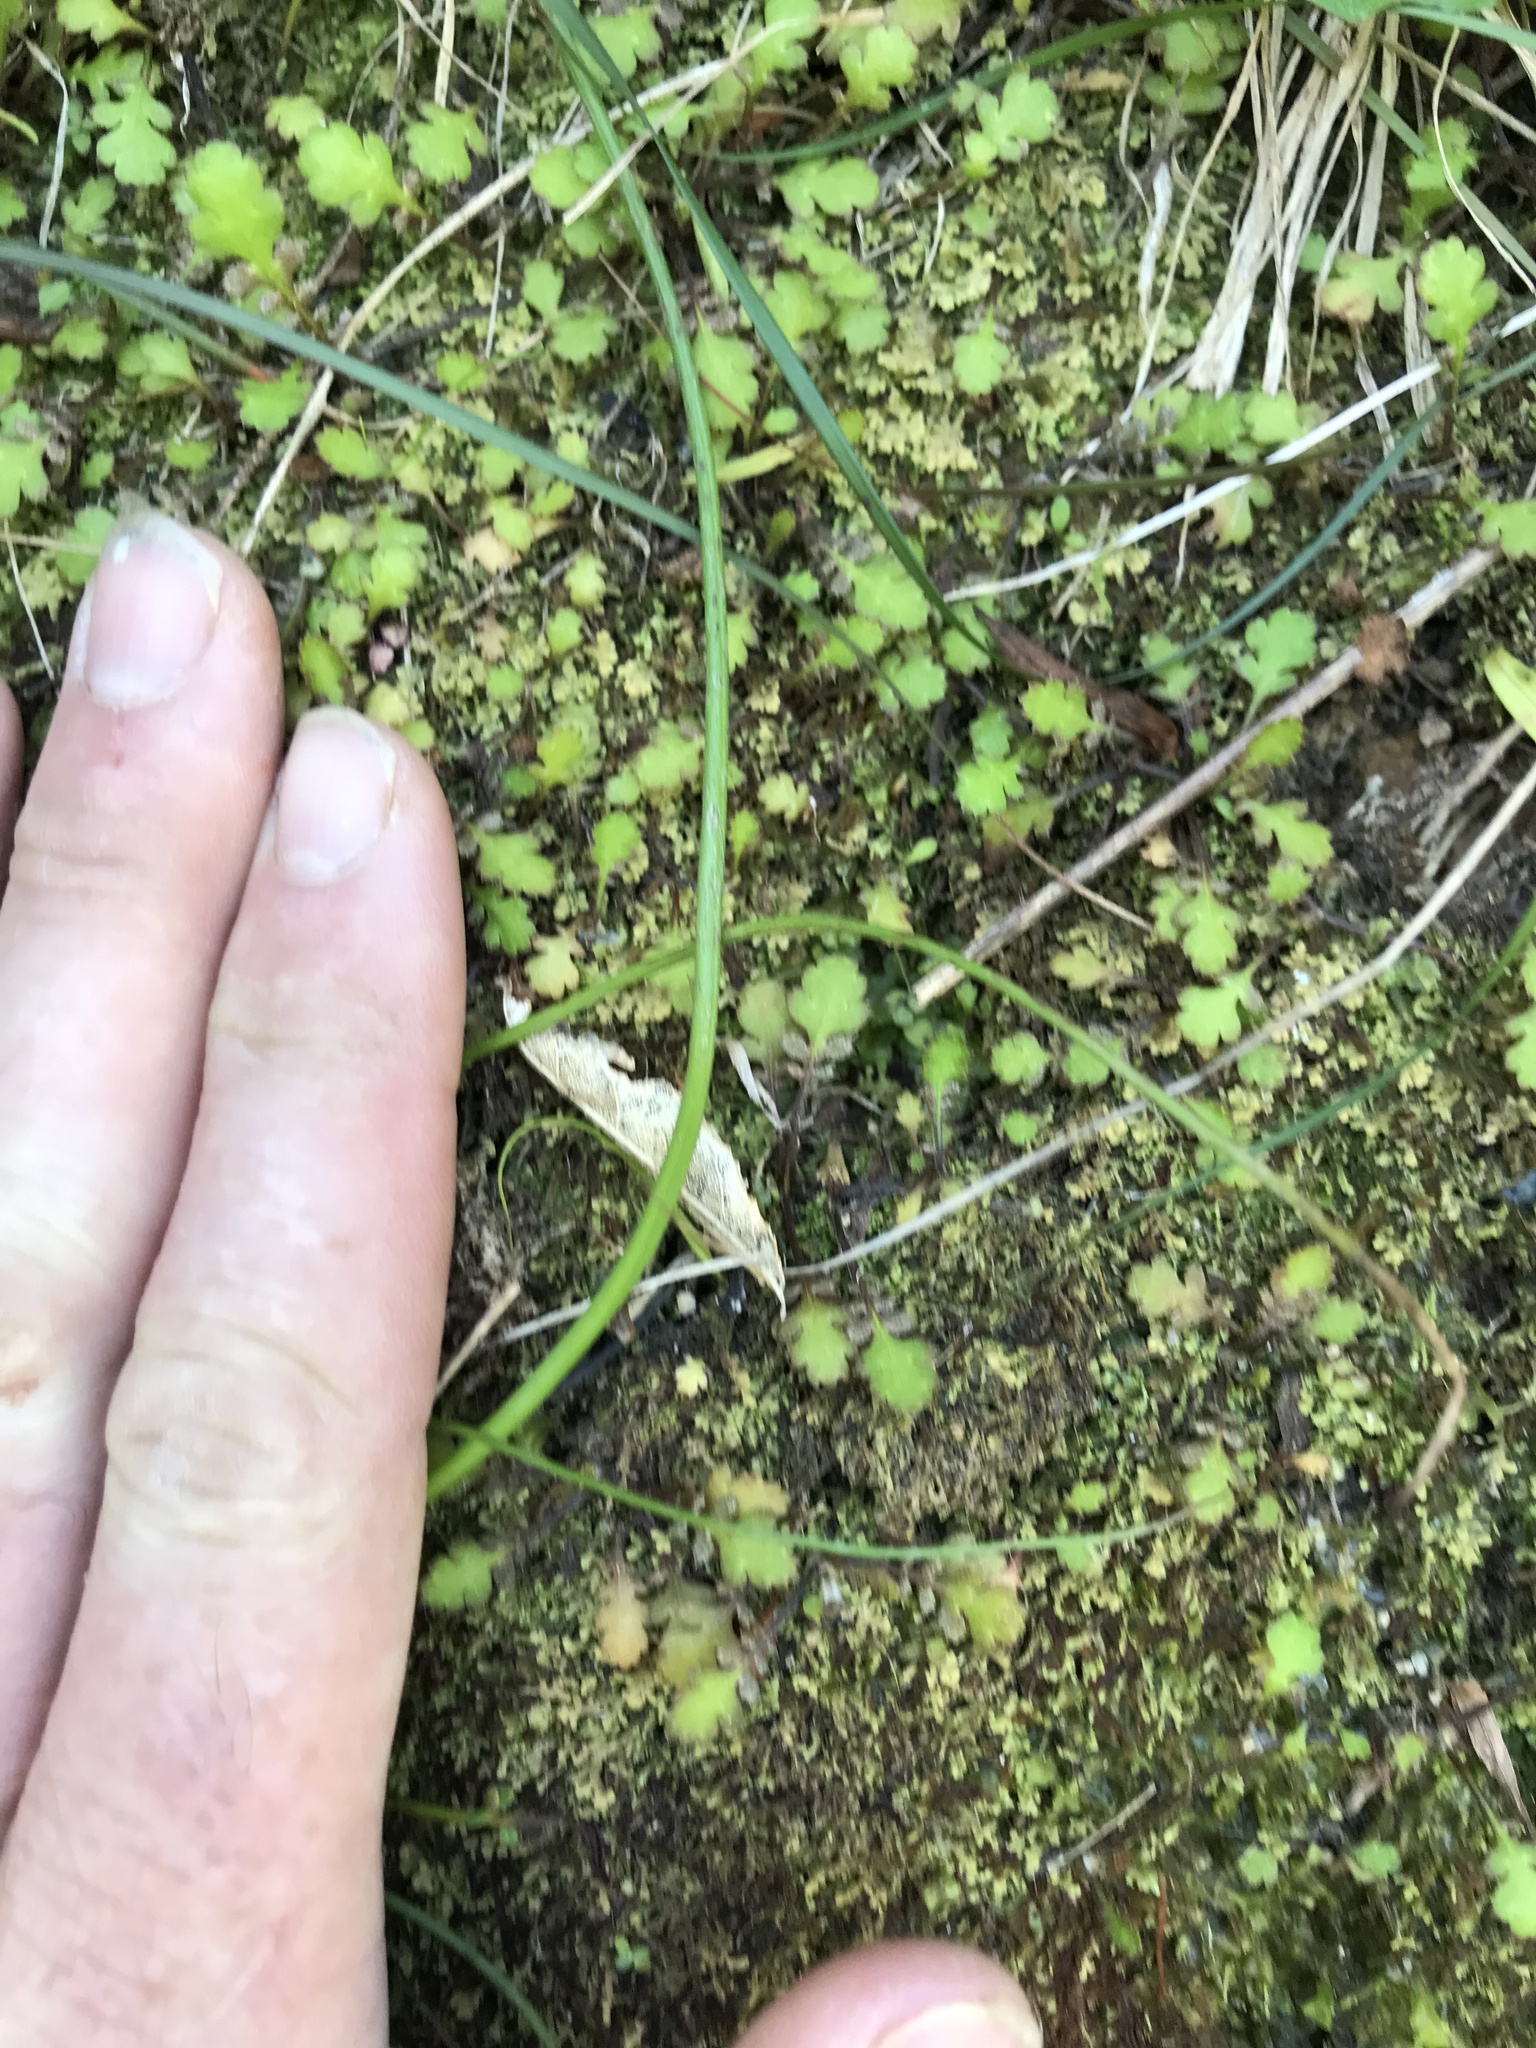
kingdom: Plantae
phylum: Tracheophyta
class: Magnoliopsida
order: Asterales
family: Asteraceae
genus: Leptinella
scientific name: Leptinella squalida
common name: New zealand brass-buttons
